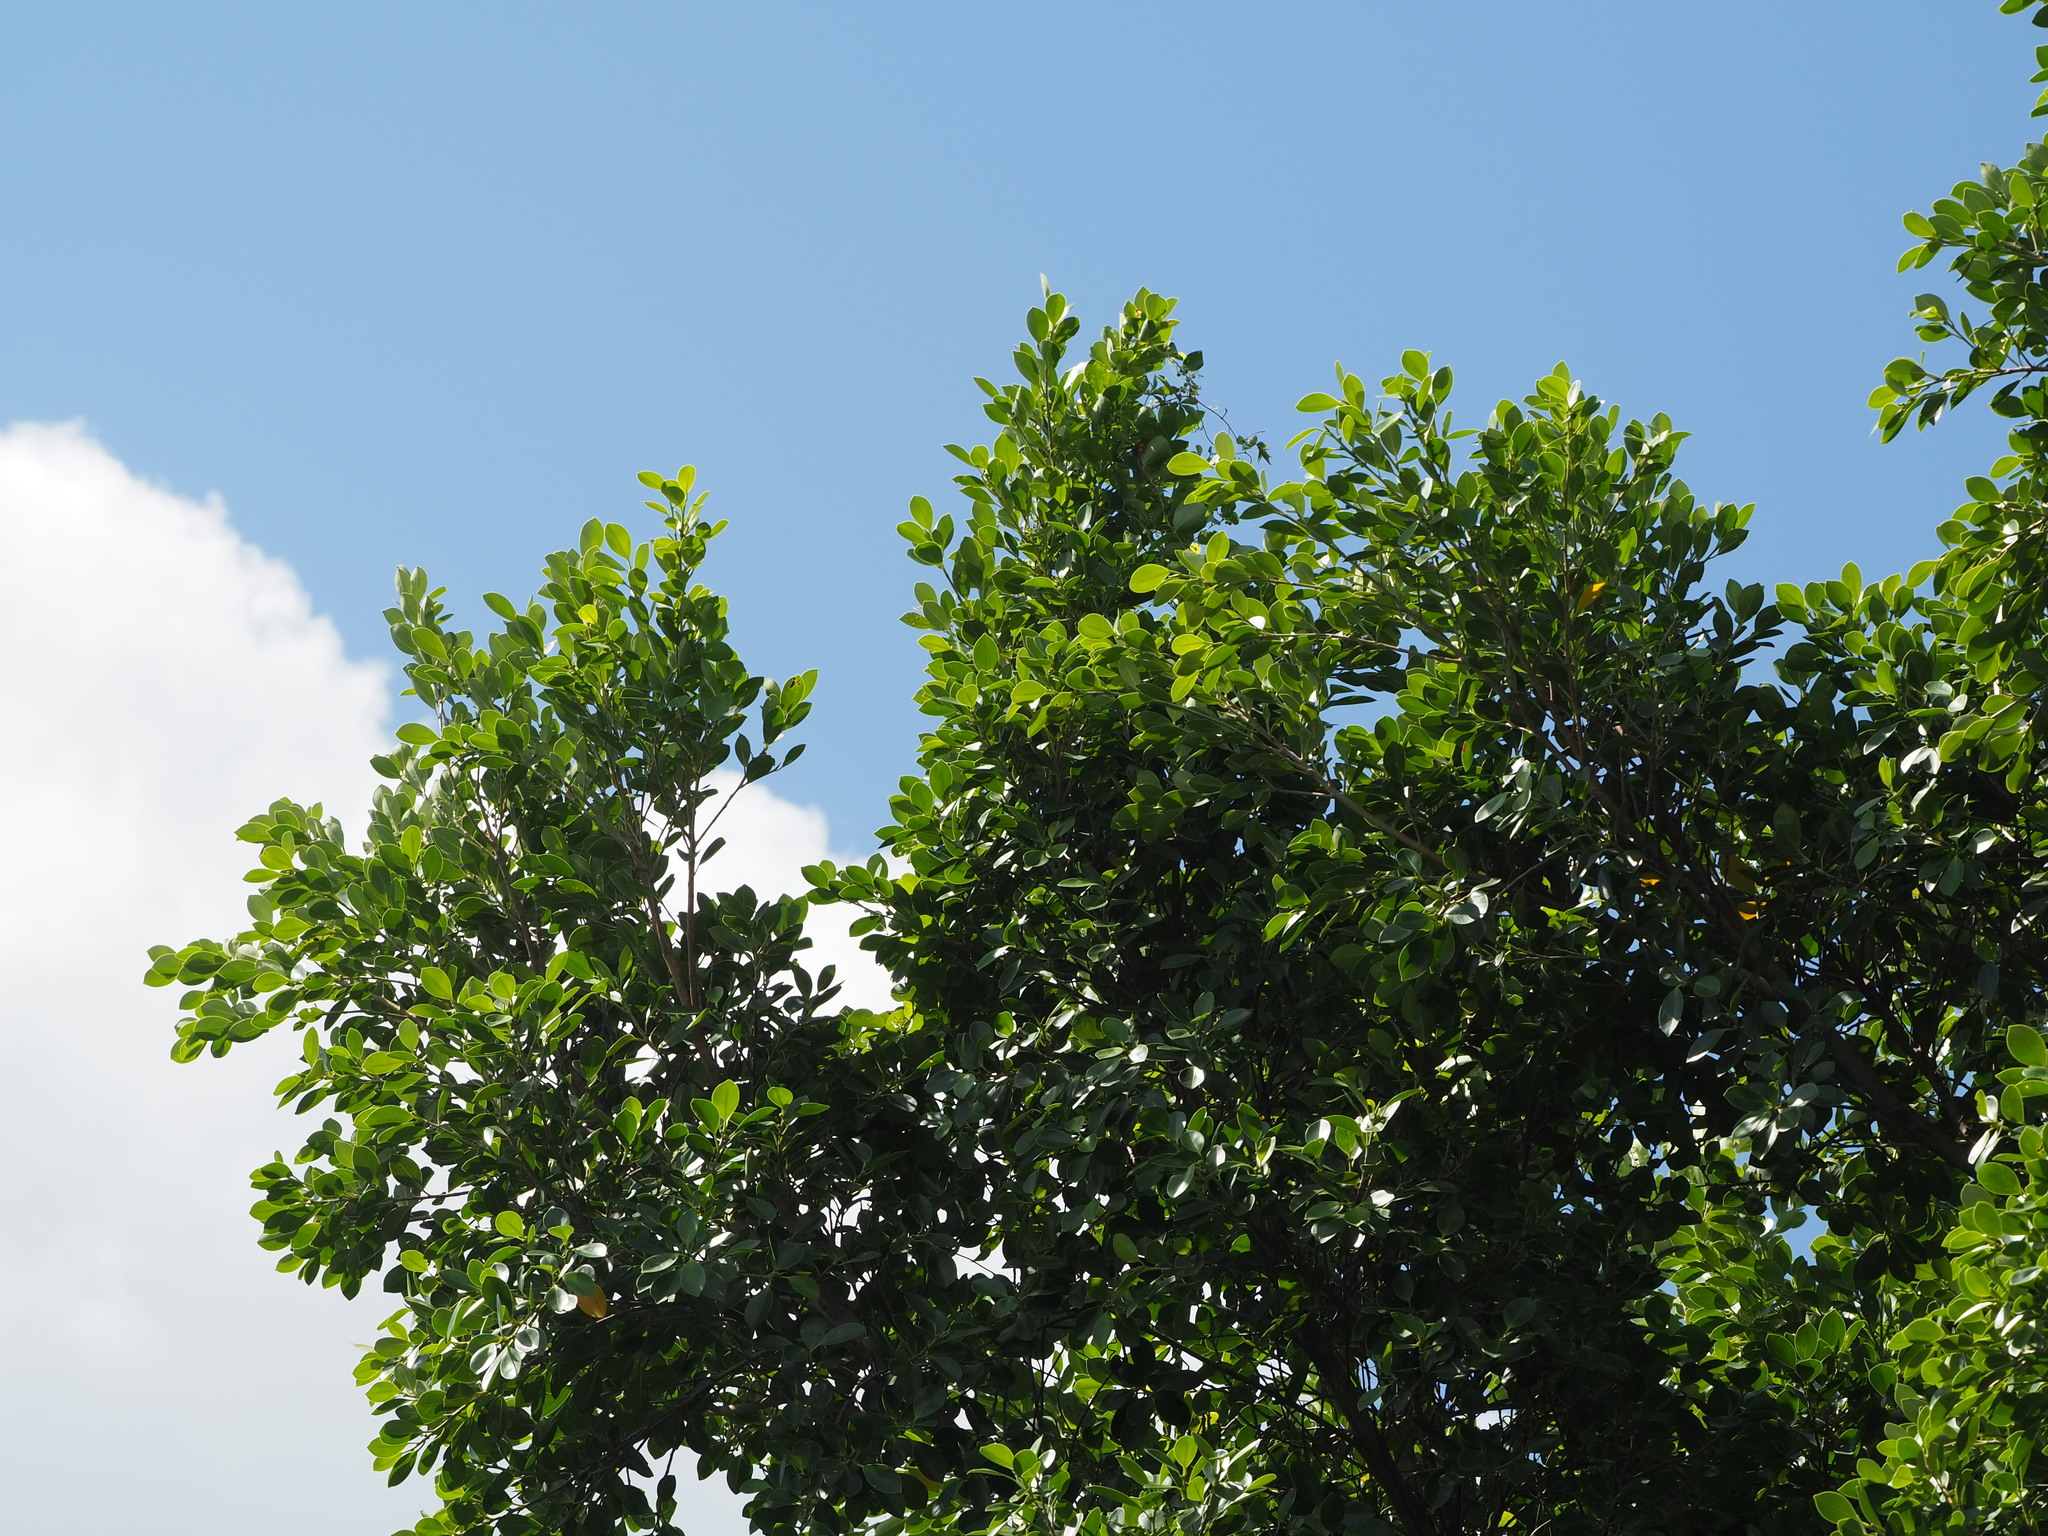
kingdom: Plantae
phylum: Tracheophyta
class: Magnoliopsida
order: Rosales
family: Moraceae
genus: Ficus
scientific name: Ficus microcarpa
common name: Chinese banyan
